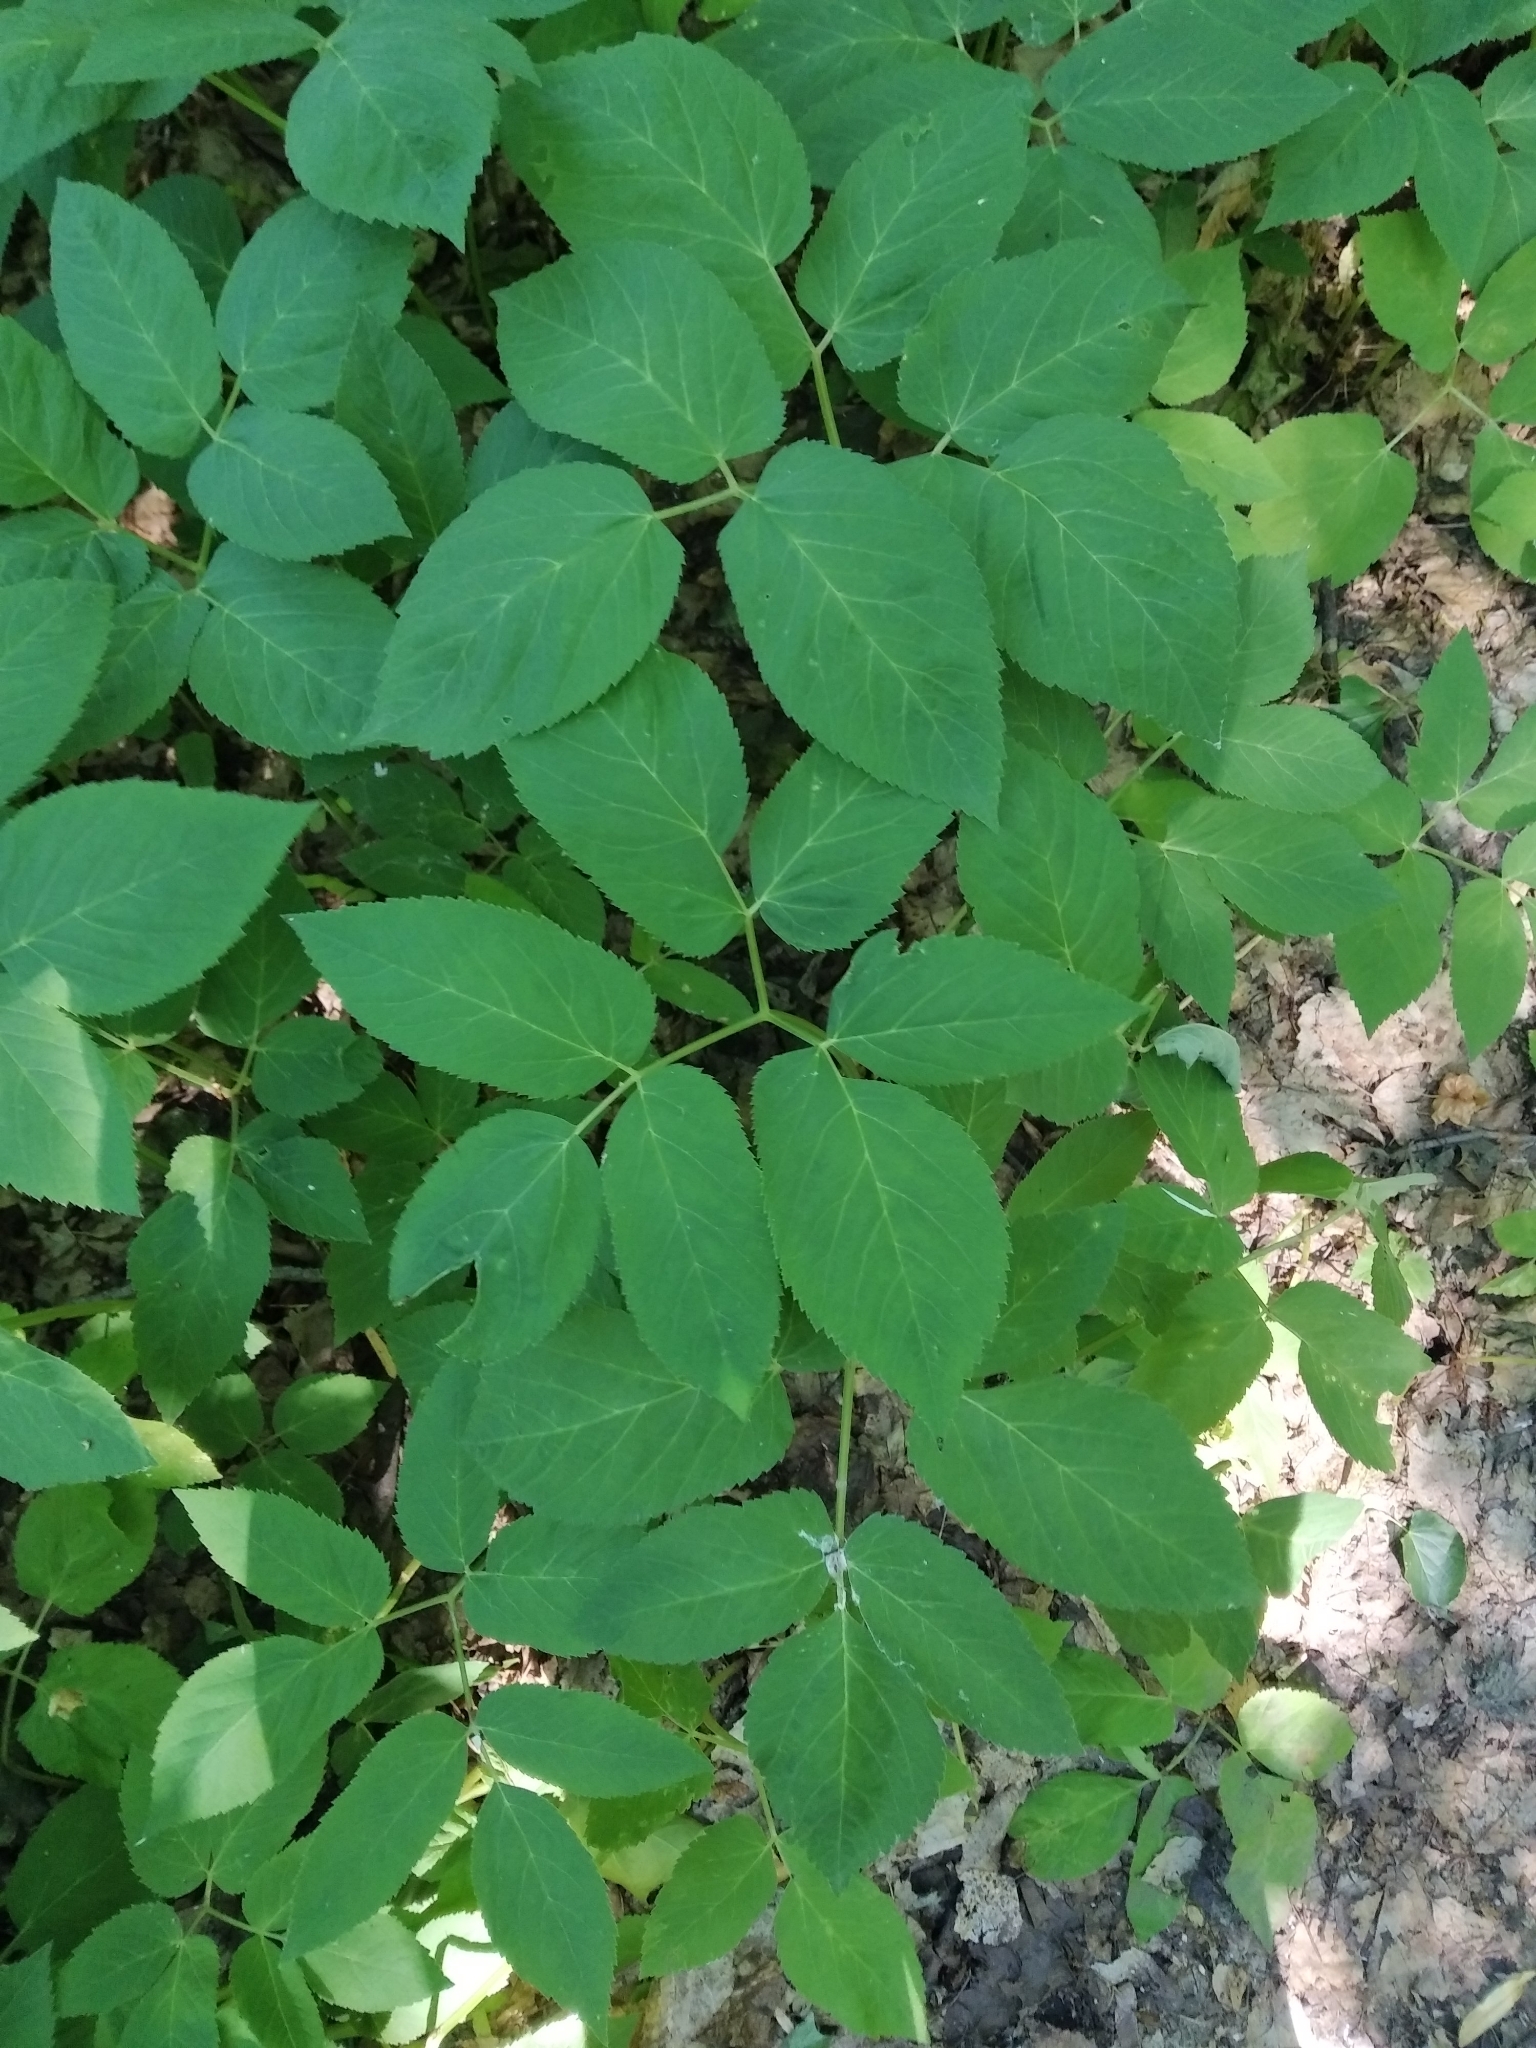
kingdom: Plantae
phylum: Tracheophyta
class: Magnoliopsida
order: Apiales
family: Apiaceae
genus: Aegopodium
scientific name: Aegopodium podagraria
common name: Ground-elder
